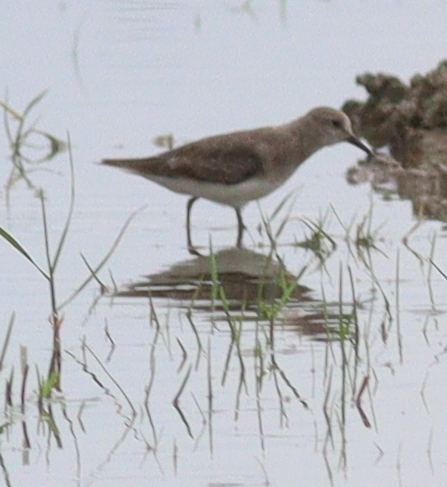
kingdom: Animalia
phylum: Chordata
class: Aves
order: Charadriiformes
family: Scolopacidae
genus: Calidris
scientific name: Calidris temminckii
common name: Temminck's stint
